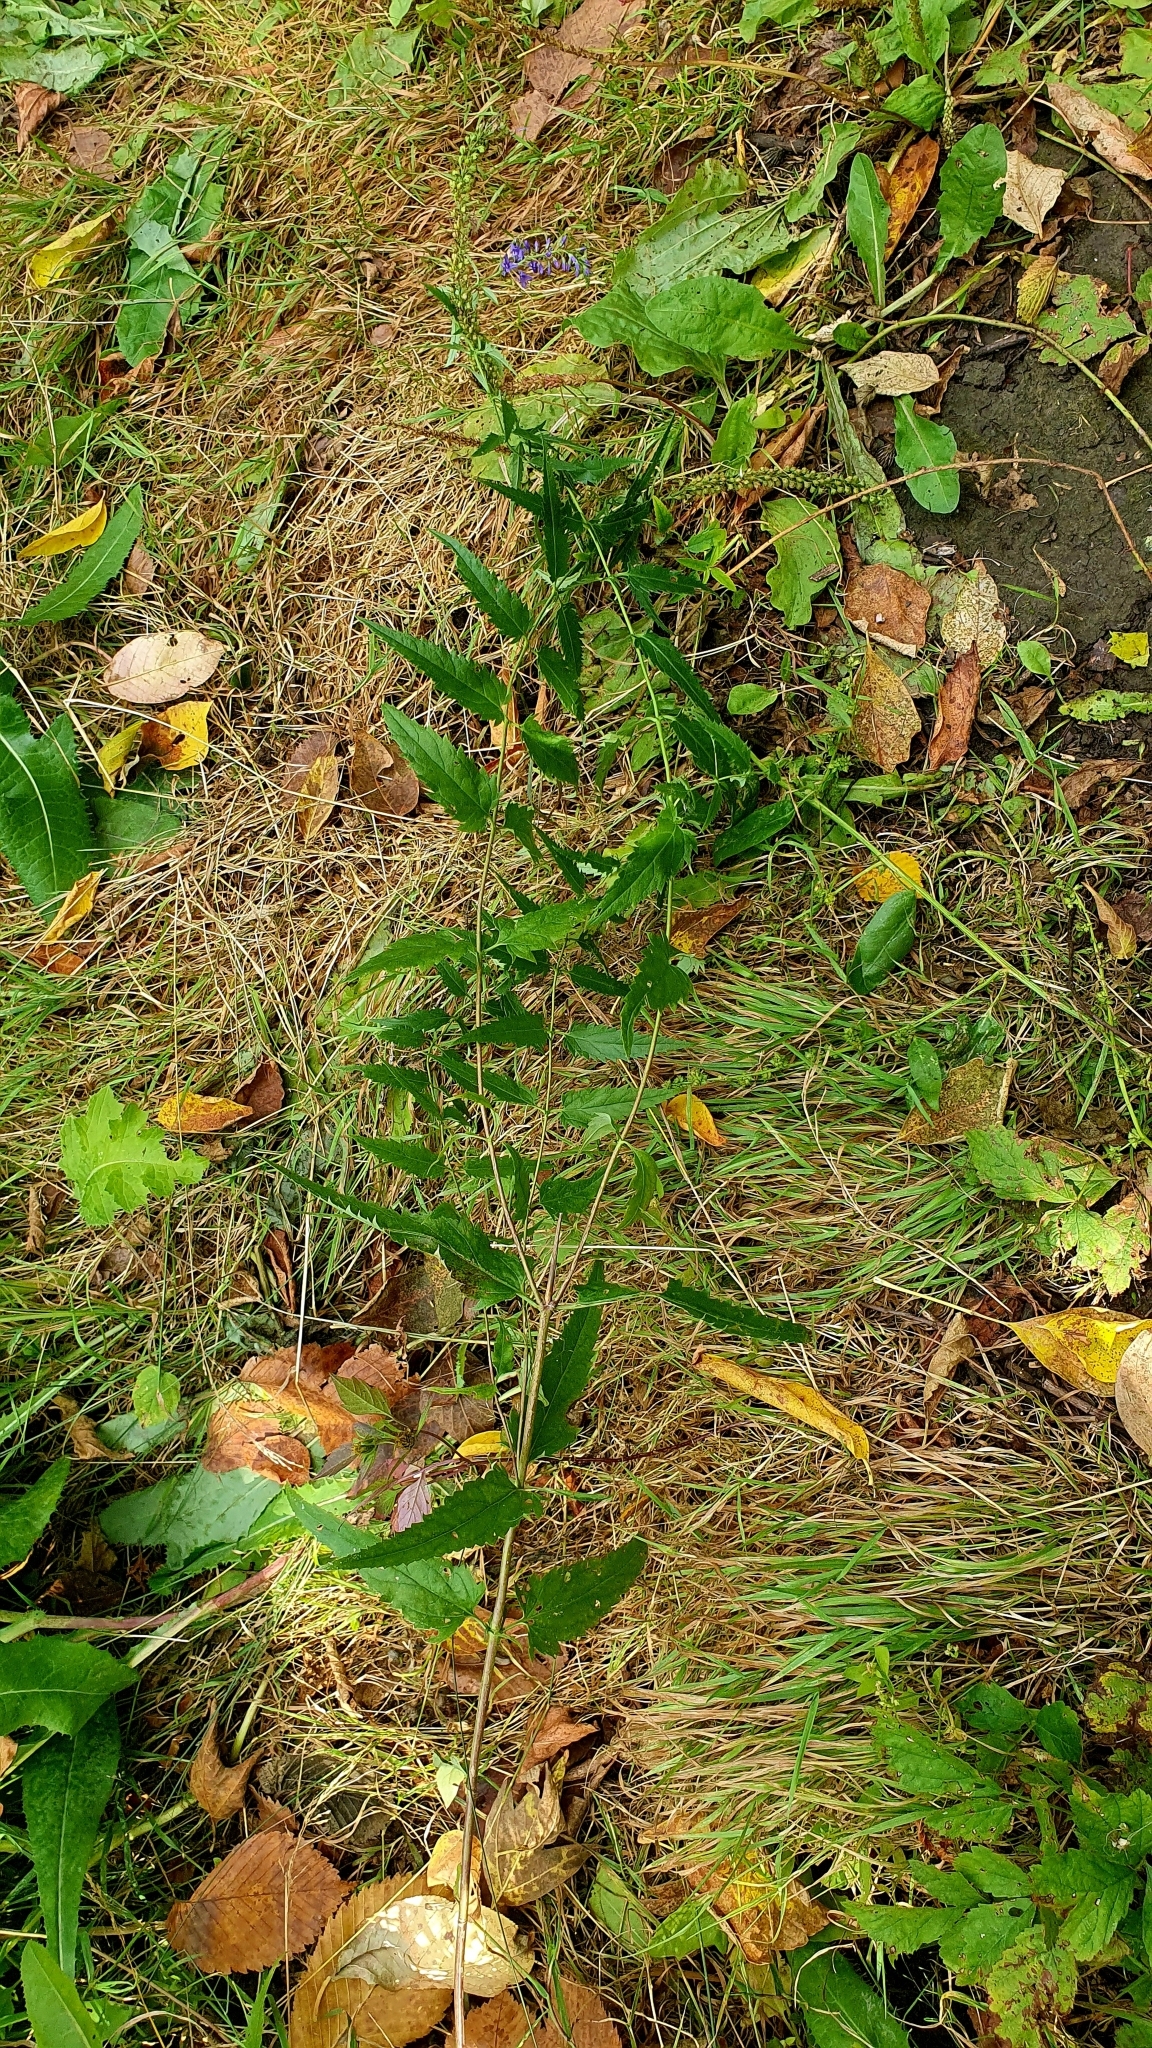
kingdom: Plantae
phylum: Tracheophyta
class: Magnoliopsida
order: Lamiales
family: Plantaginaceae
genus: Veronica
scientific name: Veronica longifolia
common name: Garden speedwell
